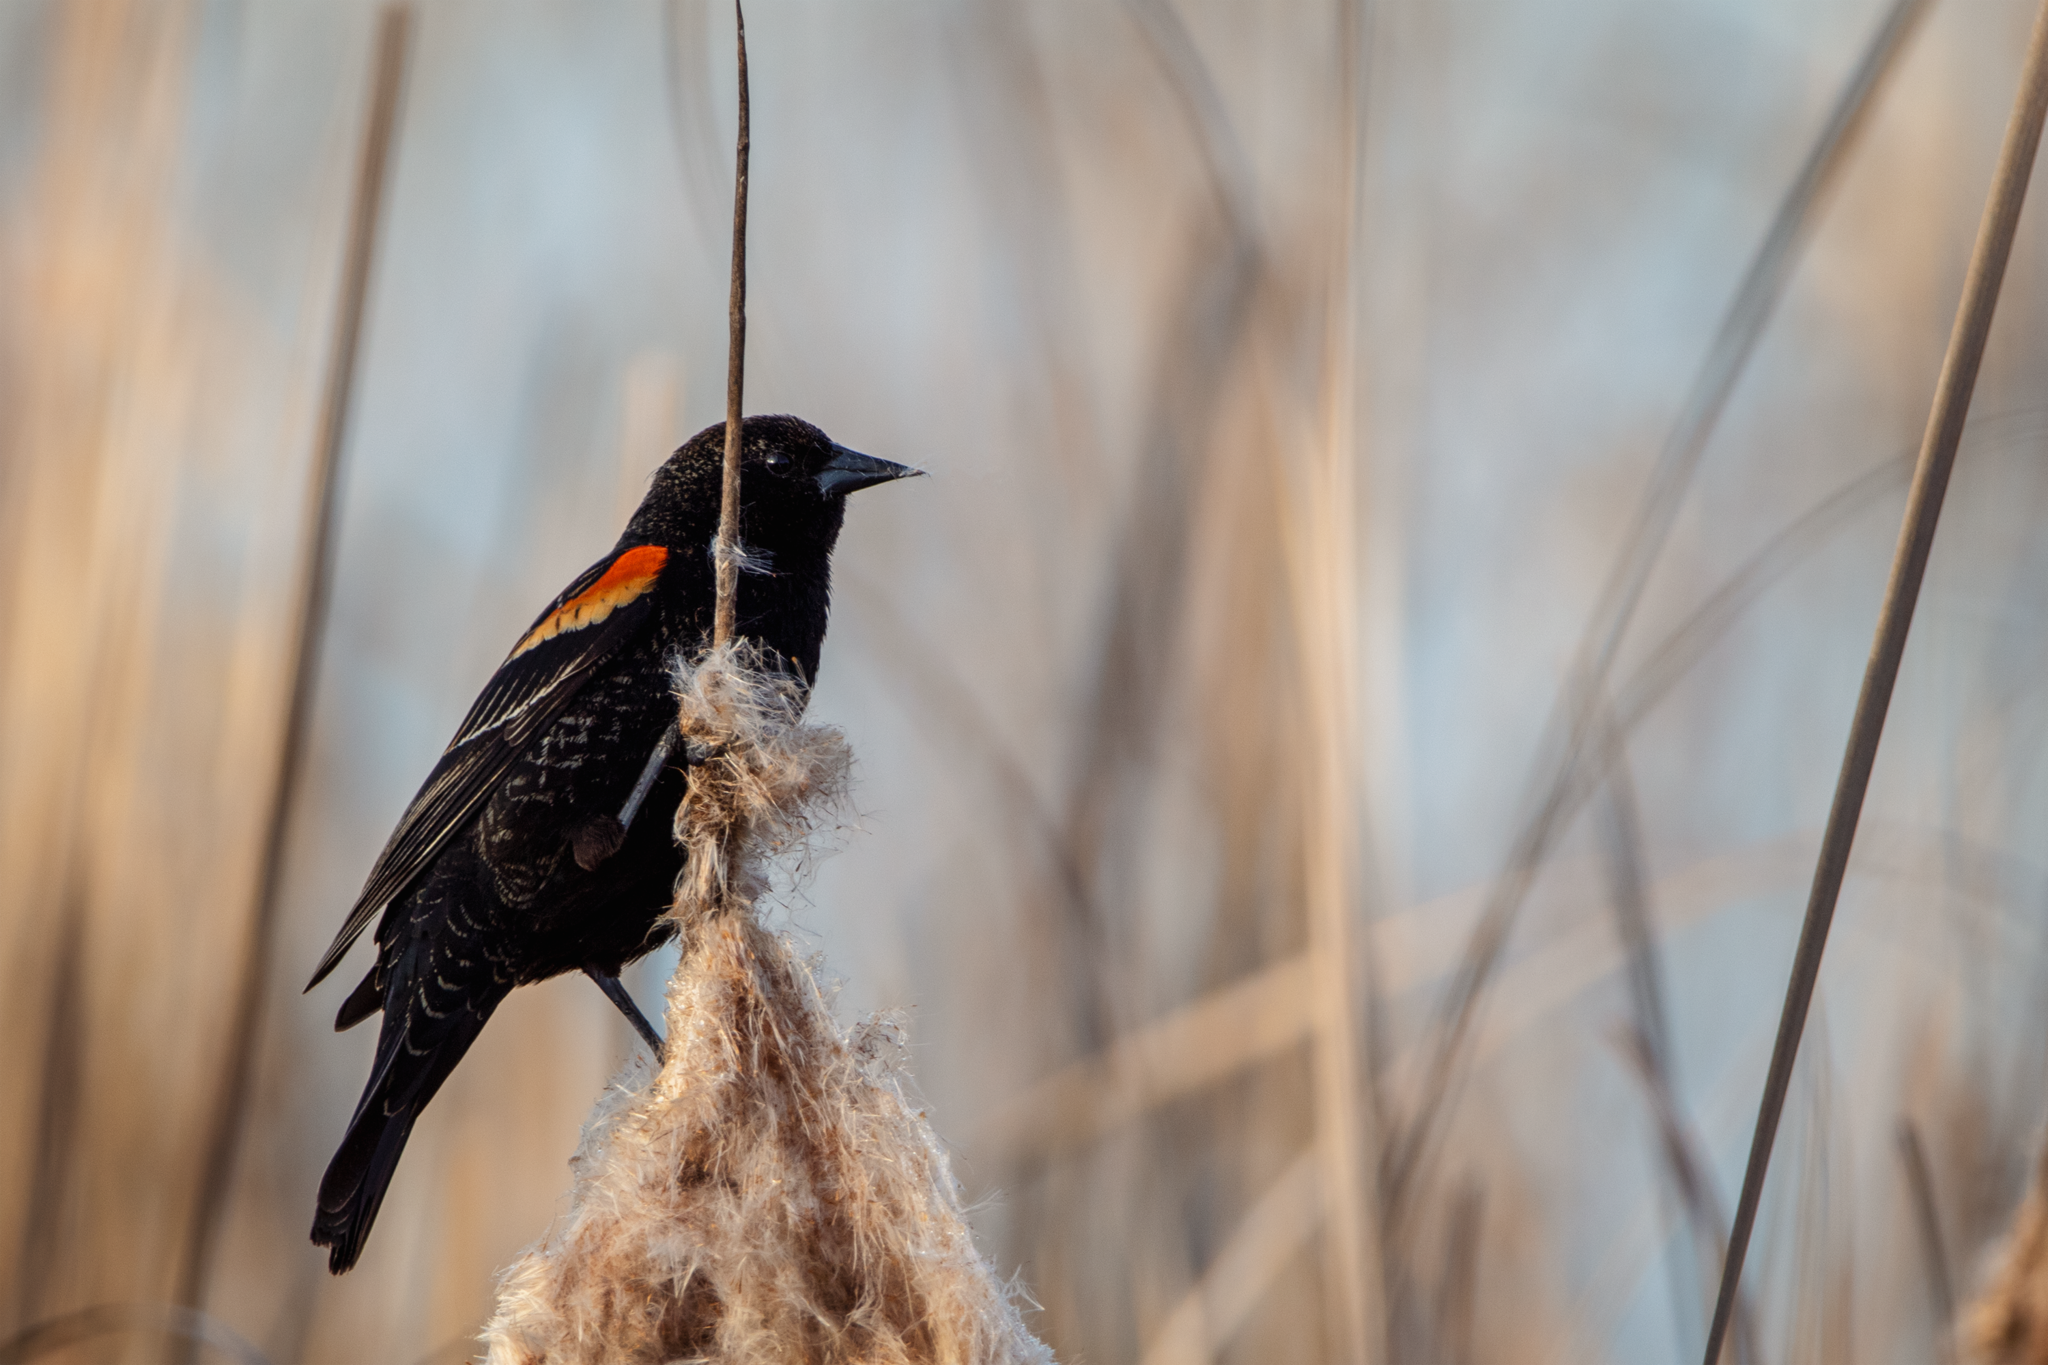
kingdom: Animalia
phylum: Chordata
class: Aves
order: Passeriformes
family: Icteridae
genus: Agelaius
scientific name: Agelaius phoeniceus
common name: Red-winged blackbird
